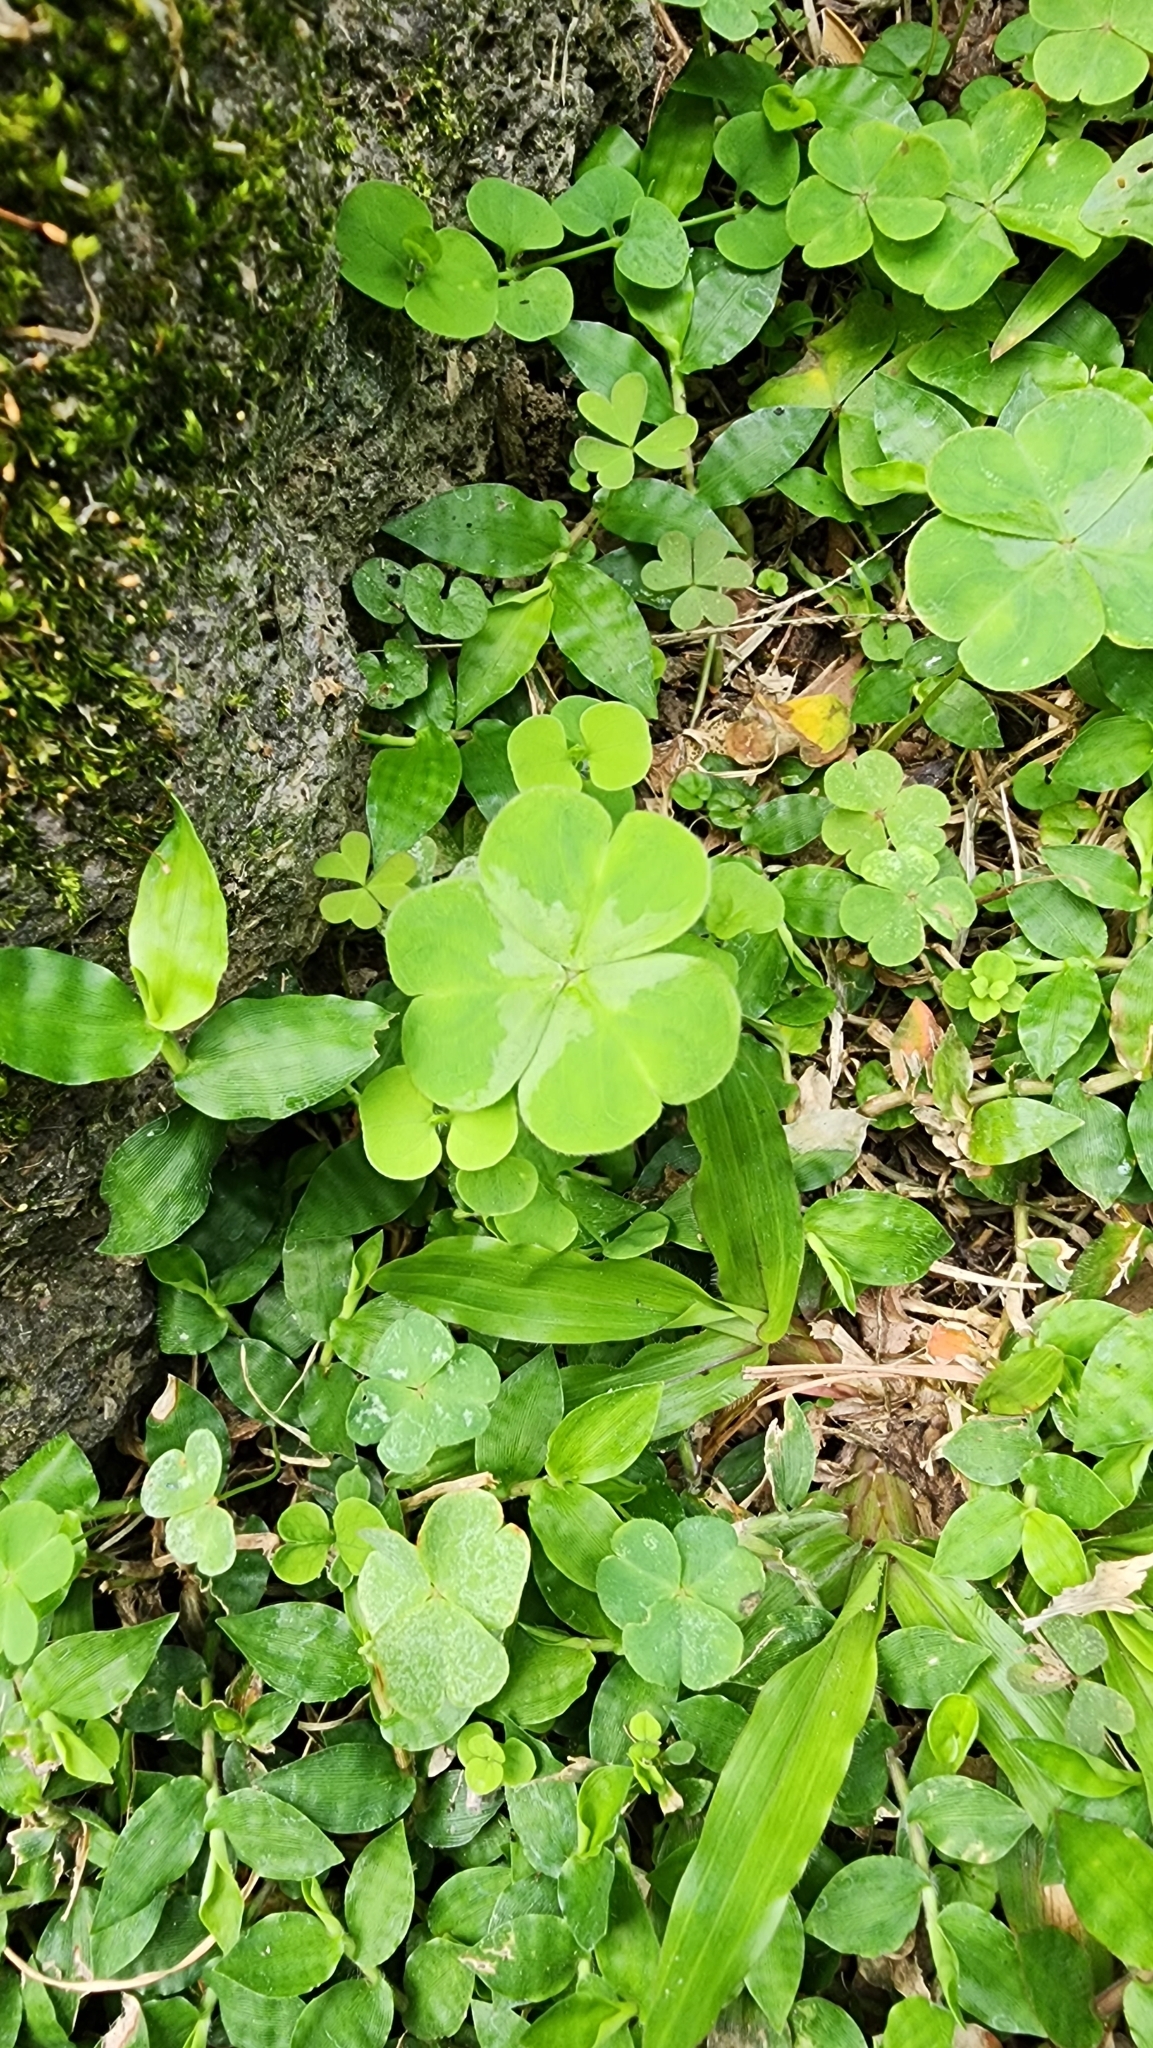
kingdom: Plantae
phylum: Tracheophyta
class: Magnoliopsida
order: Oxalidales
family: Oxalidaceae
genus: Oxalis
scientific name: Oxalis debilis
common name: Large-flowered pink-sorrel
